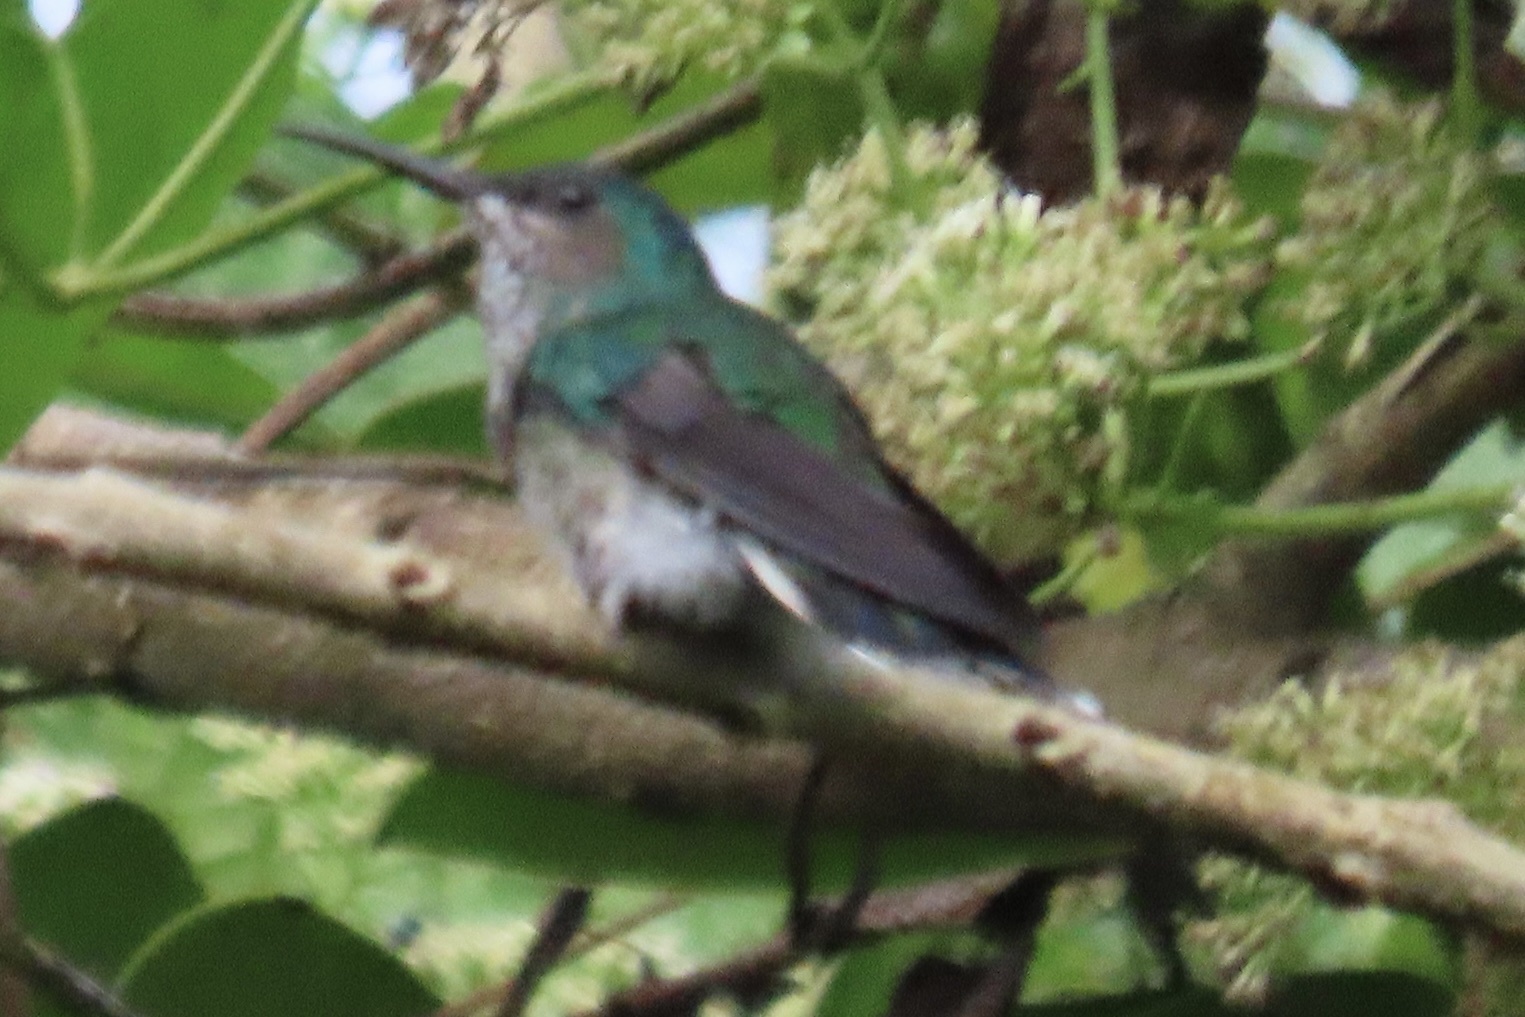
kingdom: Animalia
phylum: Chordata
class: Aves
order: Apodiformes
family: Trochilidae
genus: Florisuga
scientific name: Florisuga mellivora
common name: White-necked jacobin
